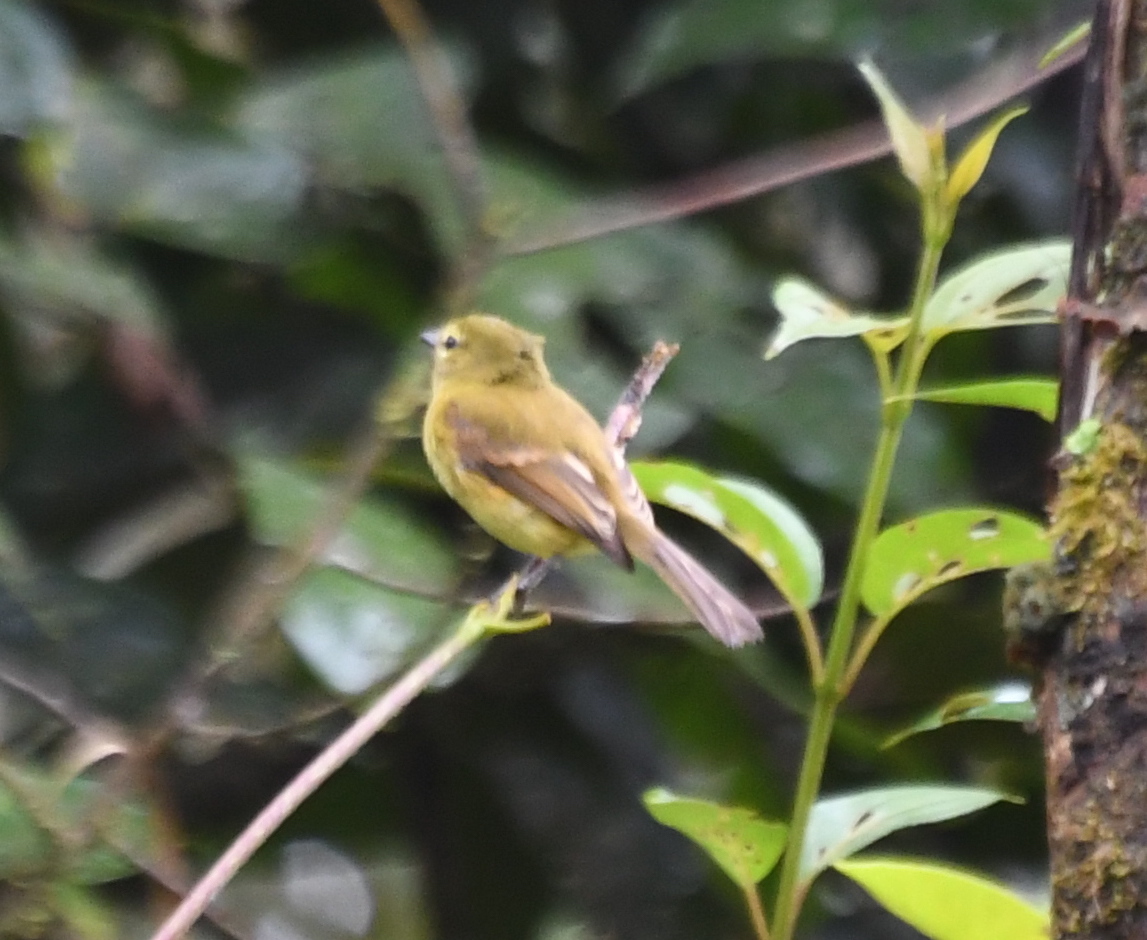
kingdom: Animalia
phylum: Chordata
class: Aves
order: Passeriformes
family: Tyrannidae
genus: Myiophobus
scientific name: Myiophobus flavicans
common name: Flavescent flycatcher
